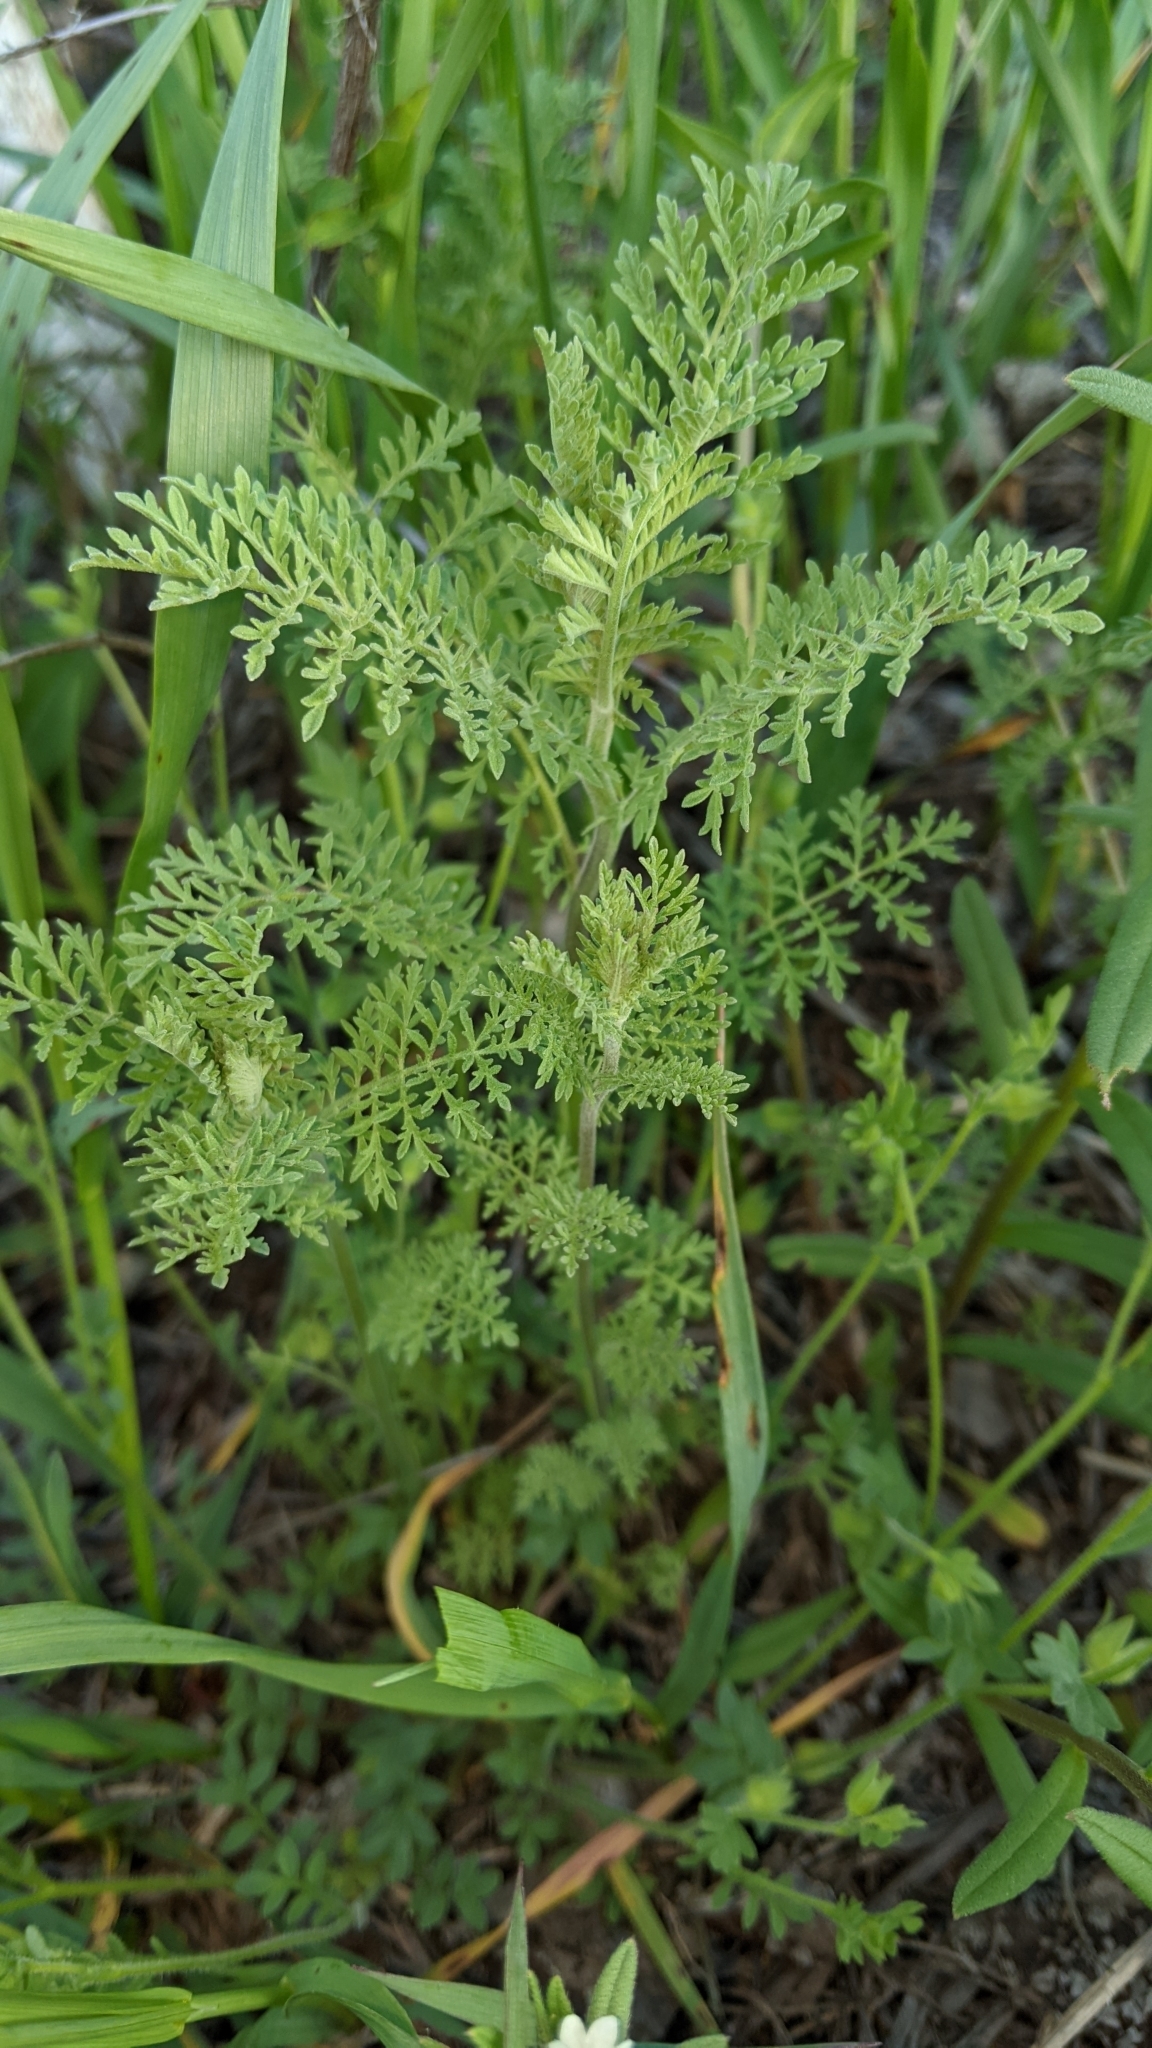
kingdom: Plantae
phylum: Tracheophyta
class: Magnoliopsida
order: Brassicales
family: Brassicaceae
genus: Descurainia
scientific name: Descurainia sophia
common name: Flixweed
